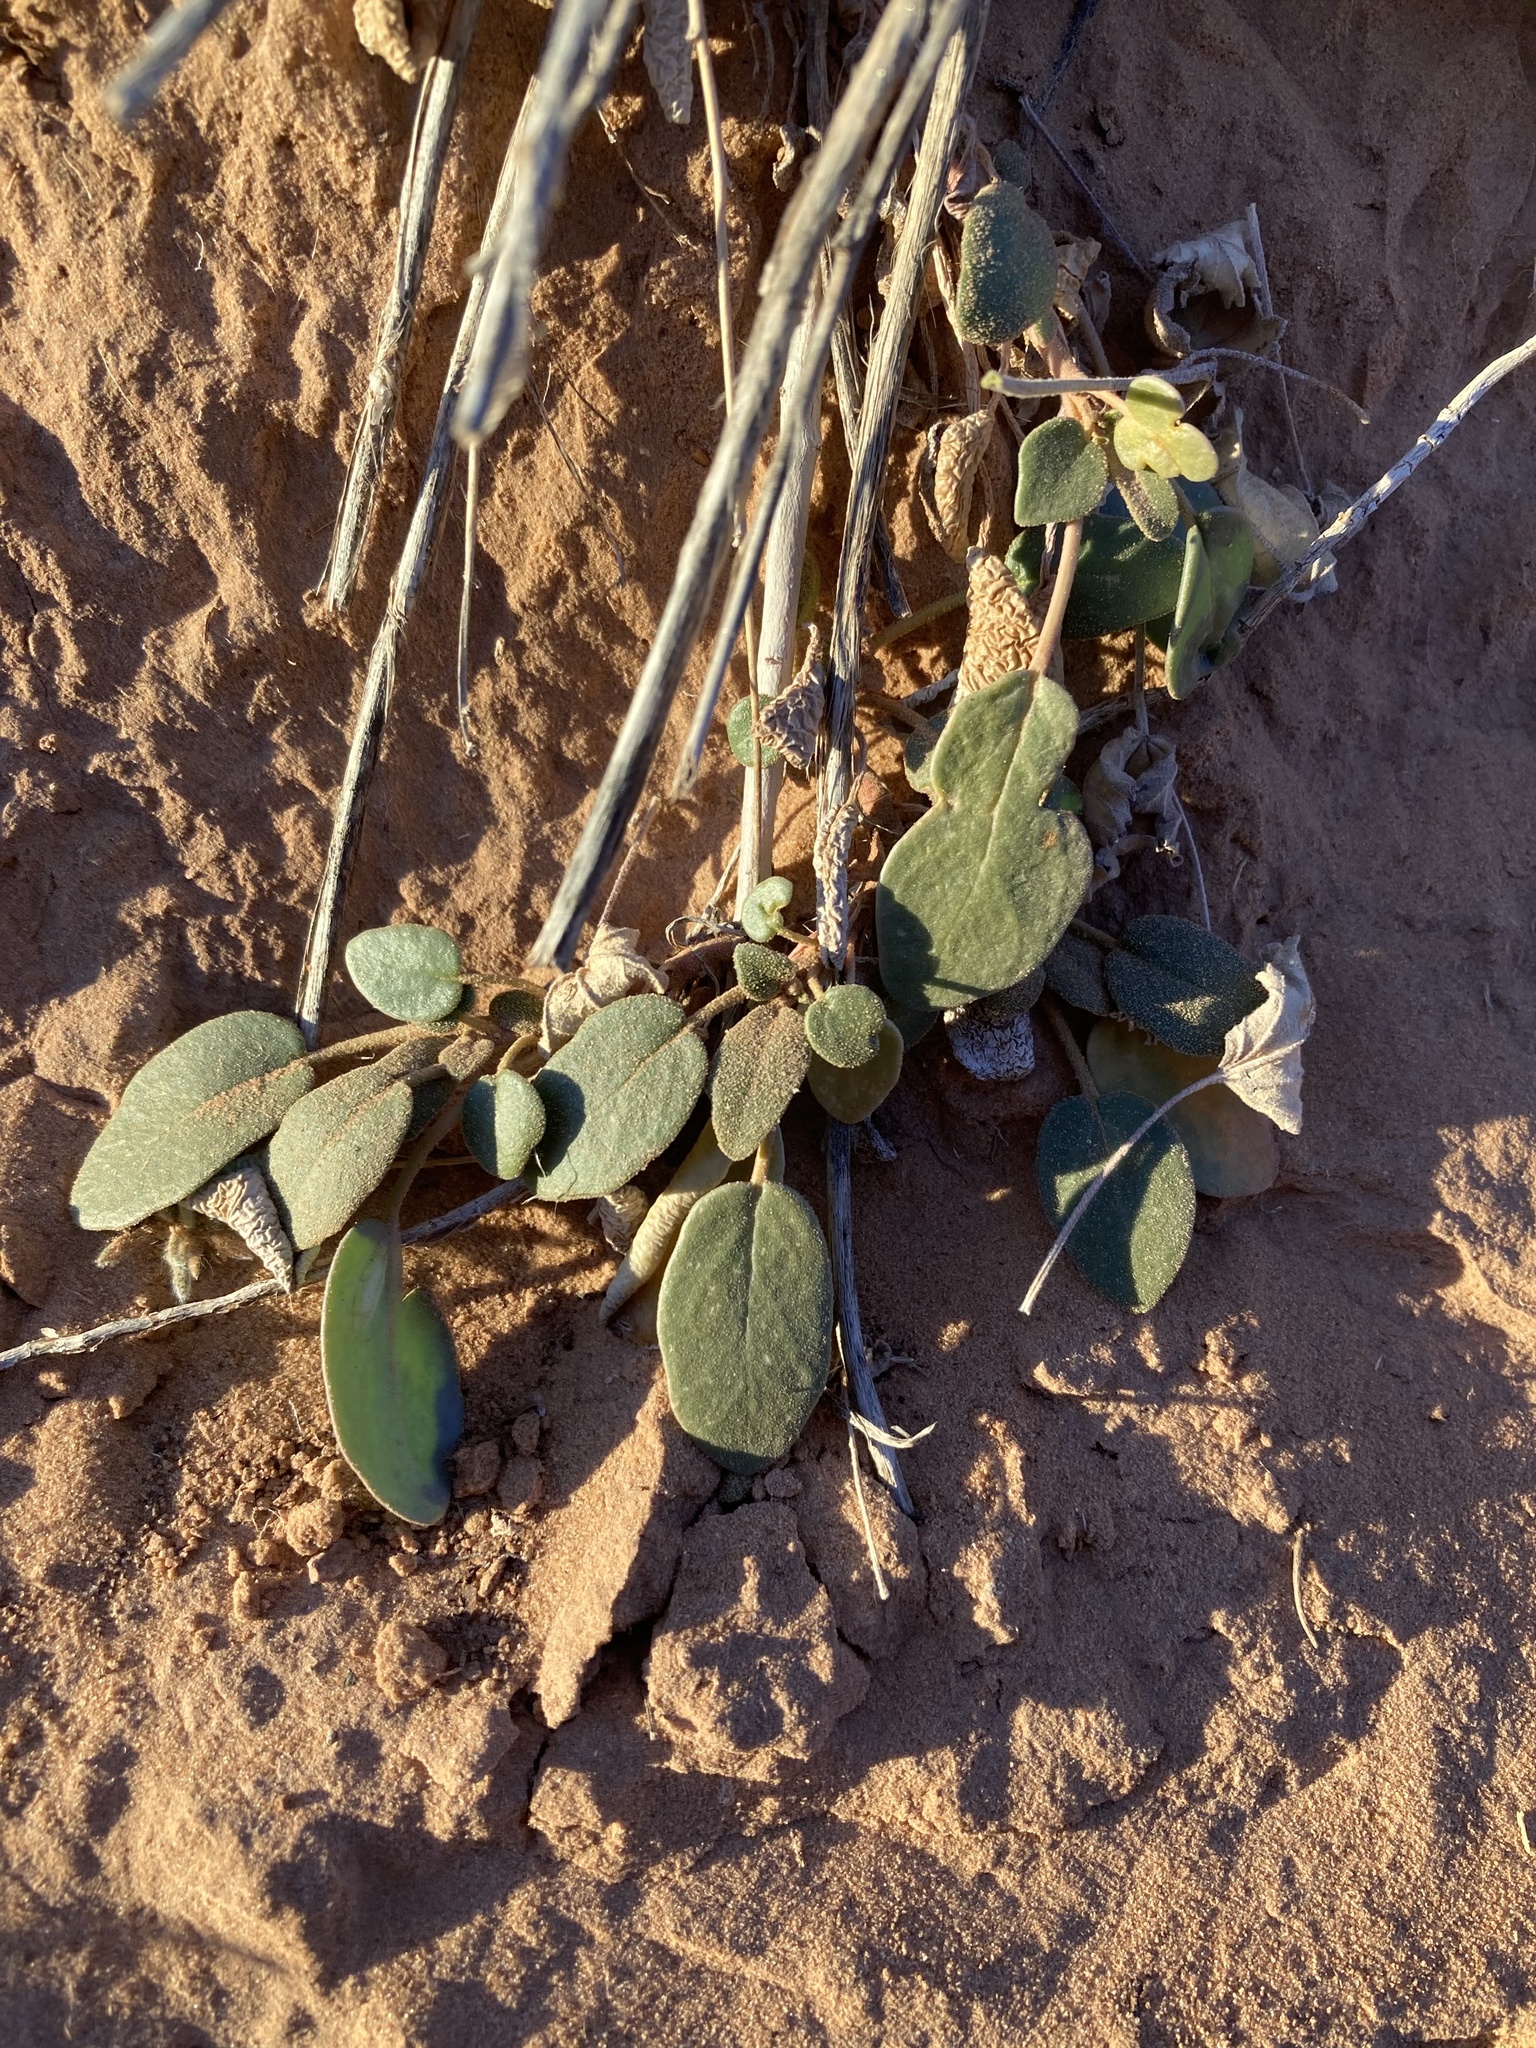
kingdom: Plantae
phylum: Tracheophyta
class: Magnoliopsida
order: Caryophyllales
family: Nyctaginaceae
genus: Abronia
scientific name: Abronia elliptica
